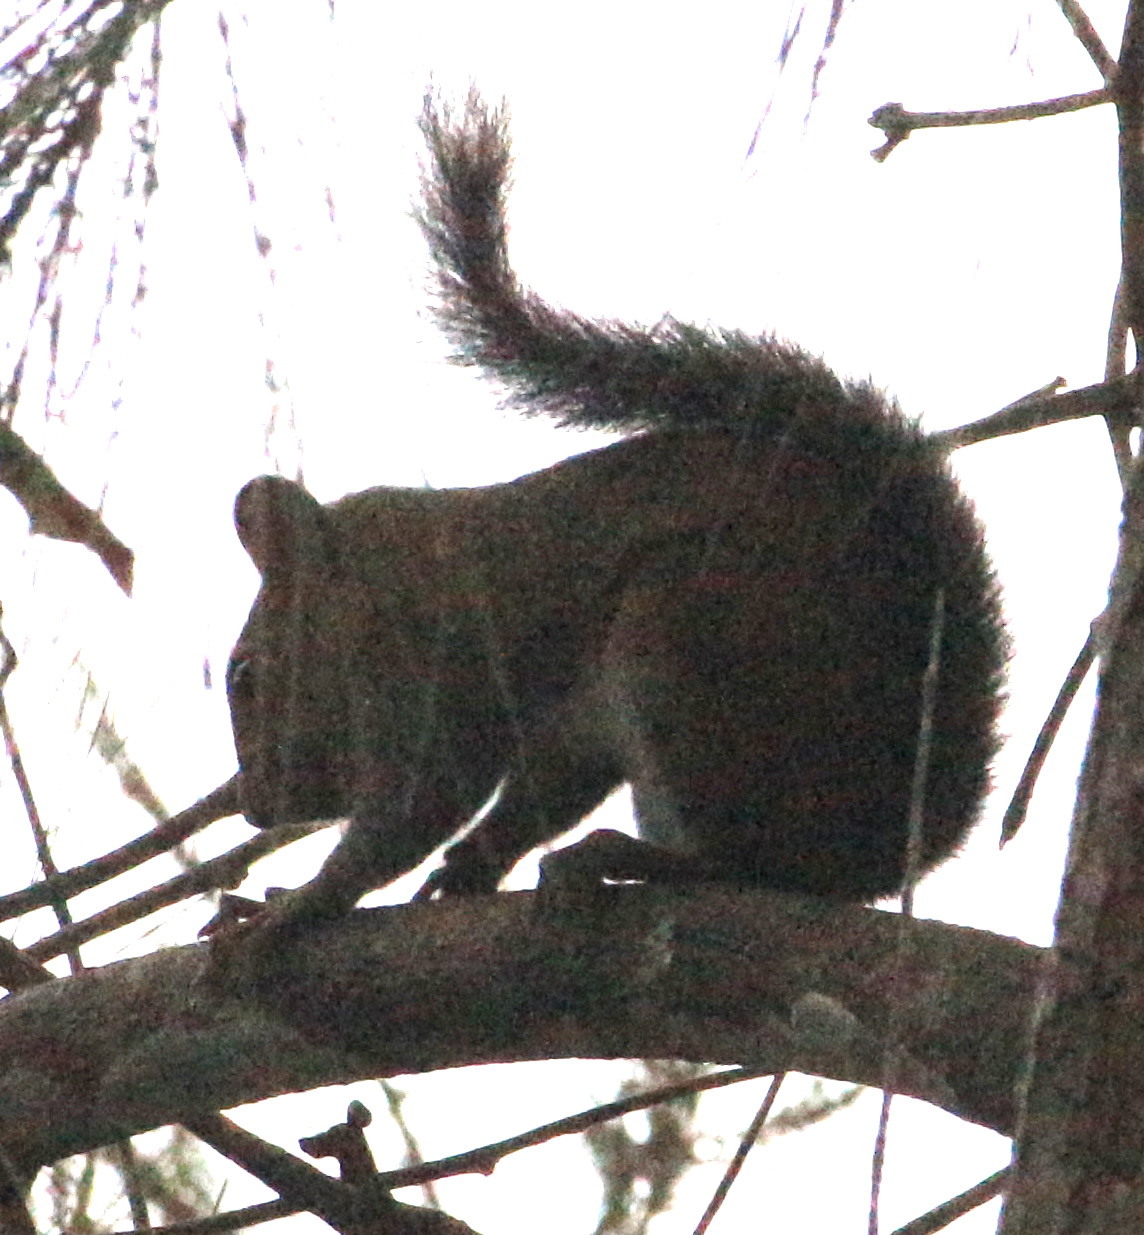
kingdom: Animalia
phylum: Chordata
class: Mammalia
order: Rodentia
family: Sciuridae
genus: Sciurus
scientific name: Sciurus deppei
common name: Deppe's squirrel
